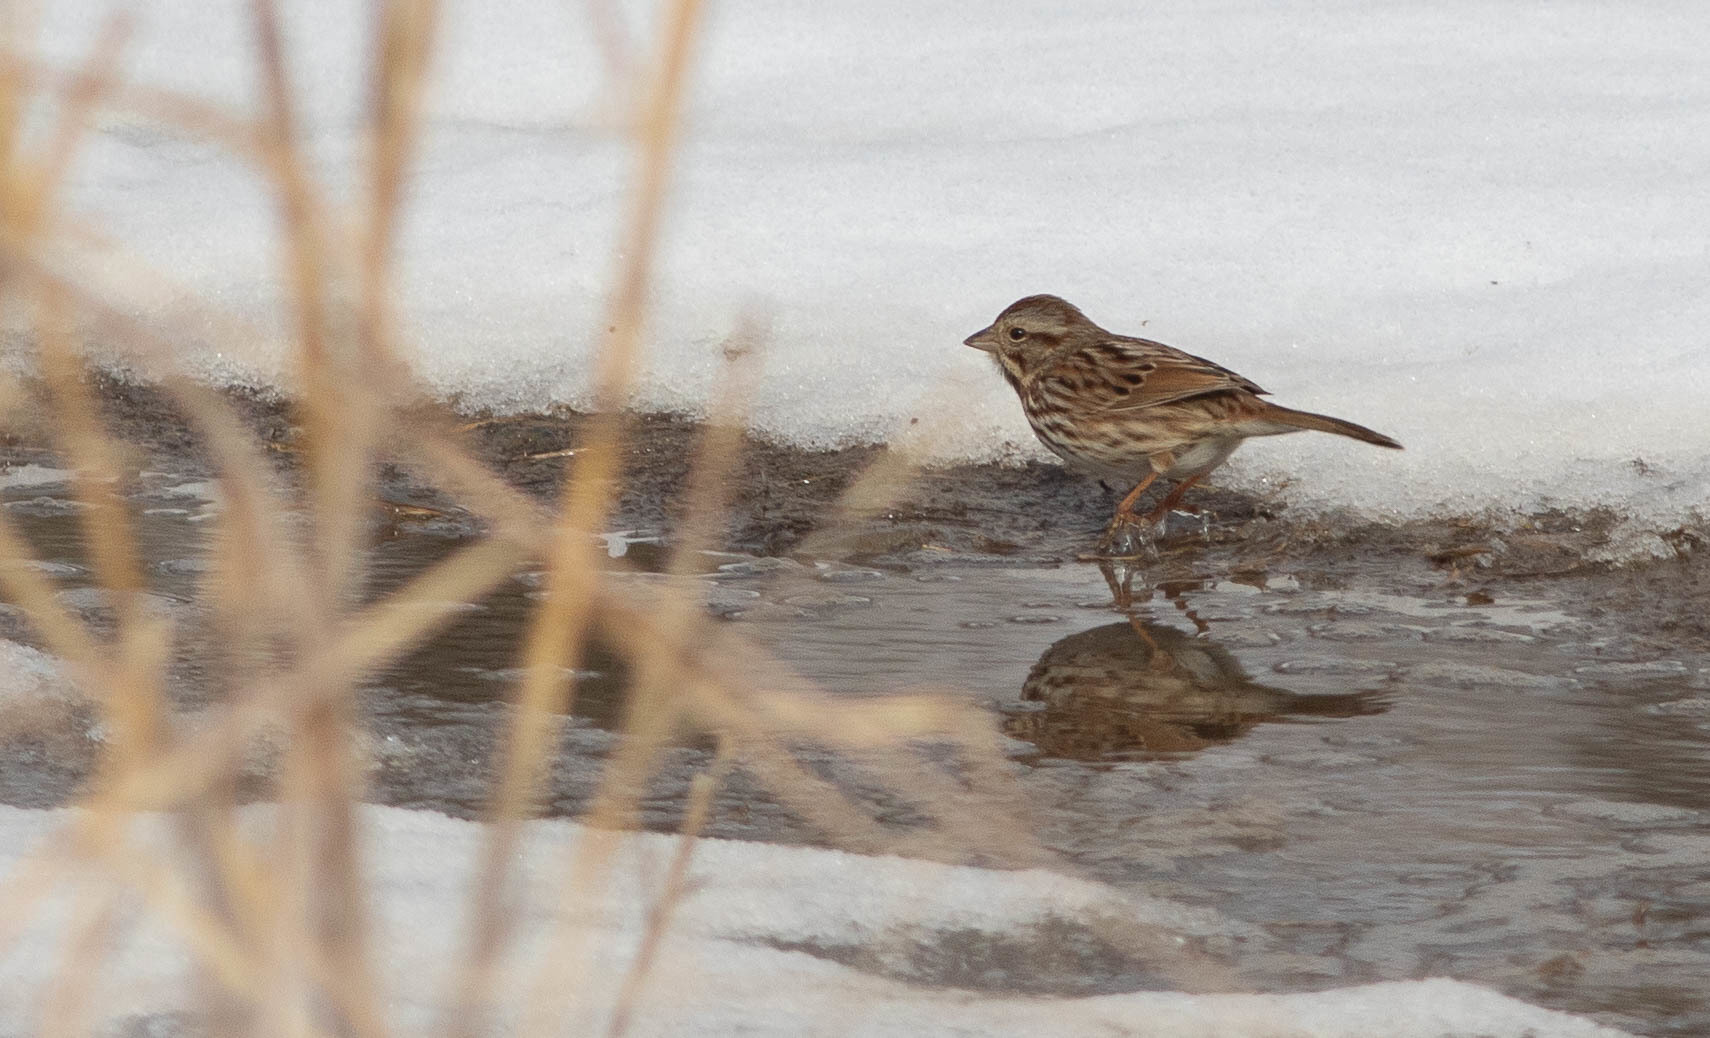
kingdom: Animalia
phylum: Chordata
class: Aves
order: Passeriformes
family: Passerellidae
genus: Melospiza
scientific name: Melospiza melodia
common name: Song sparrow
